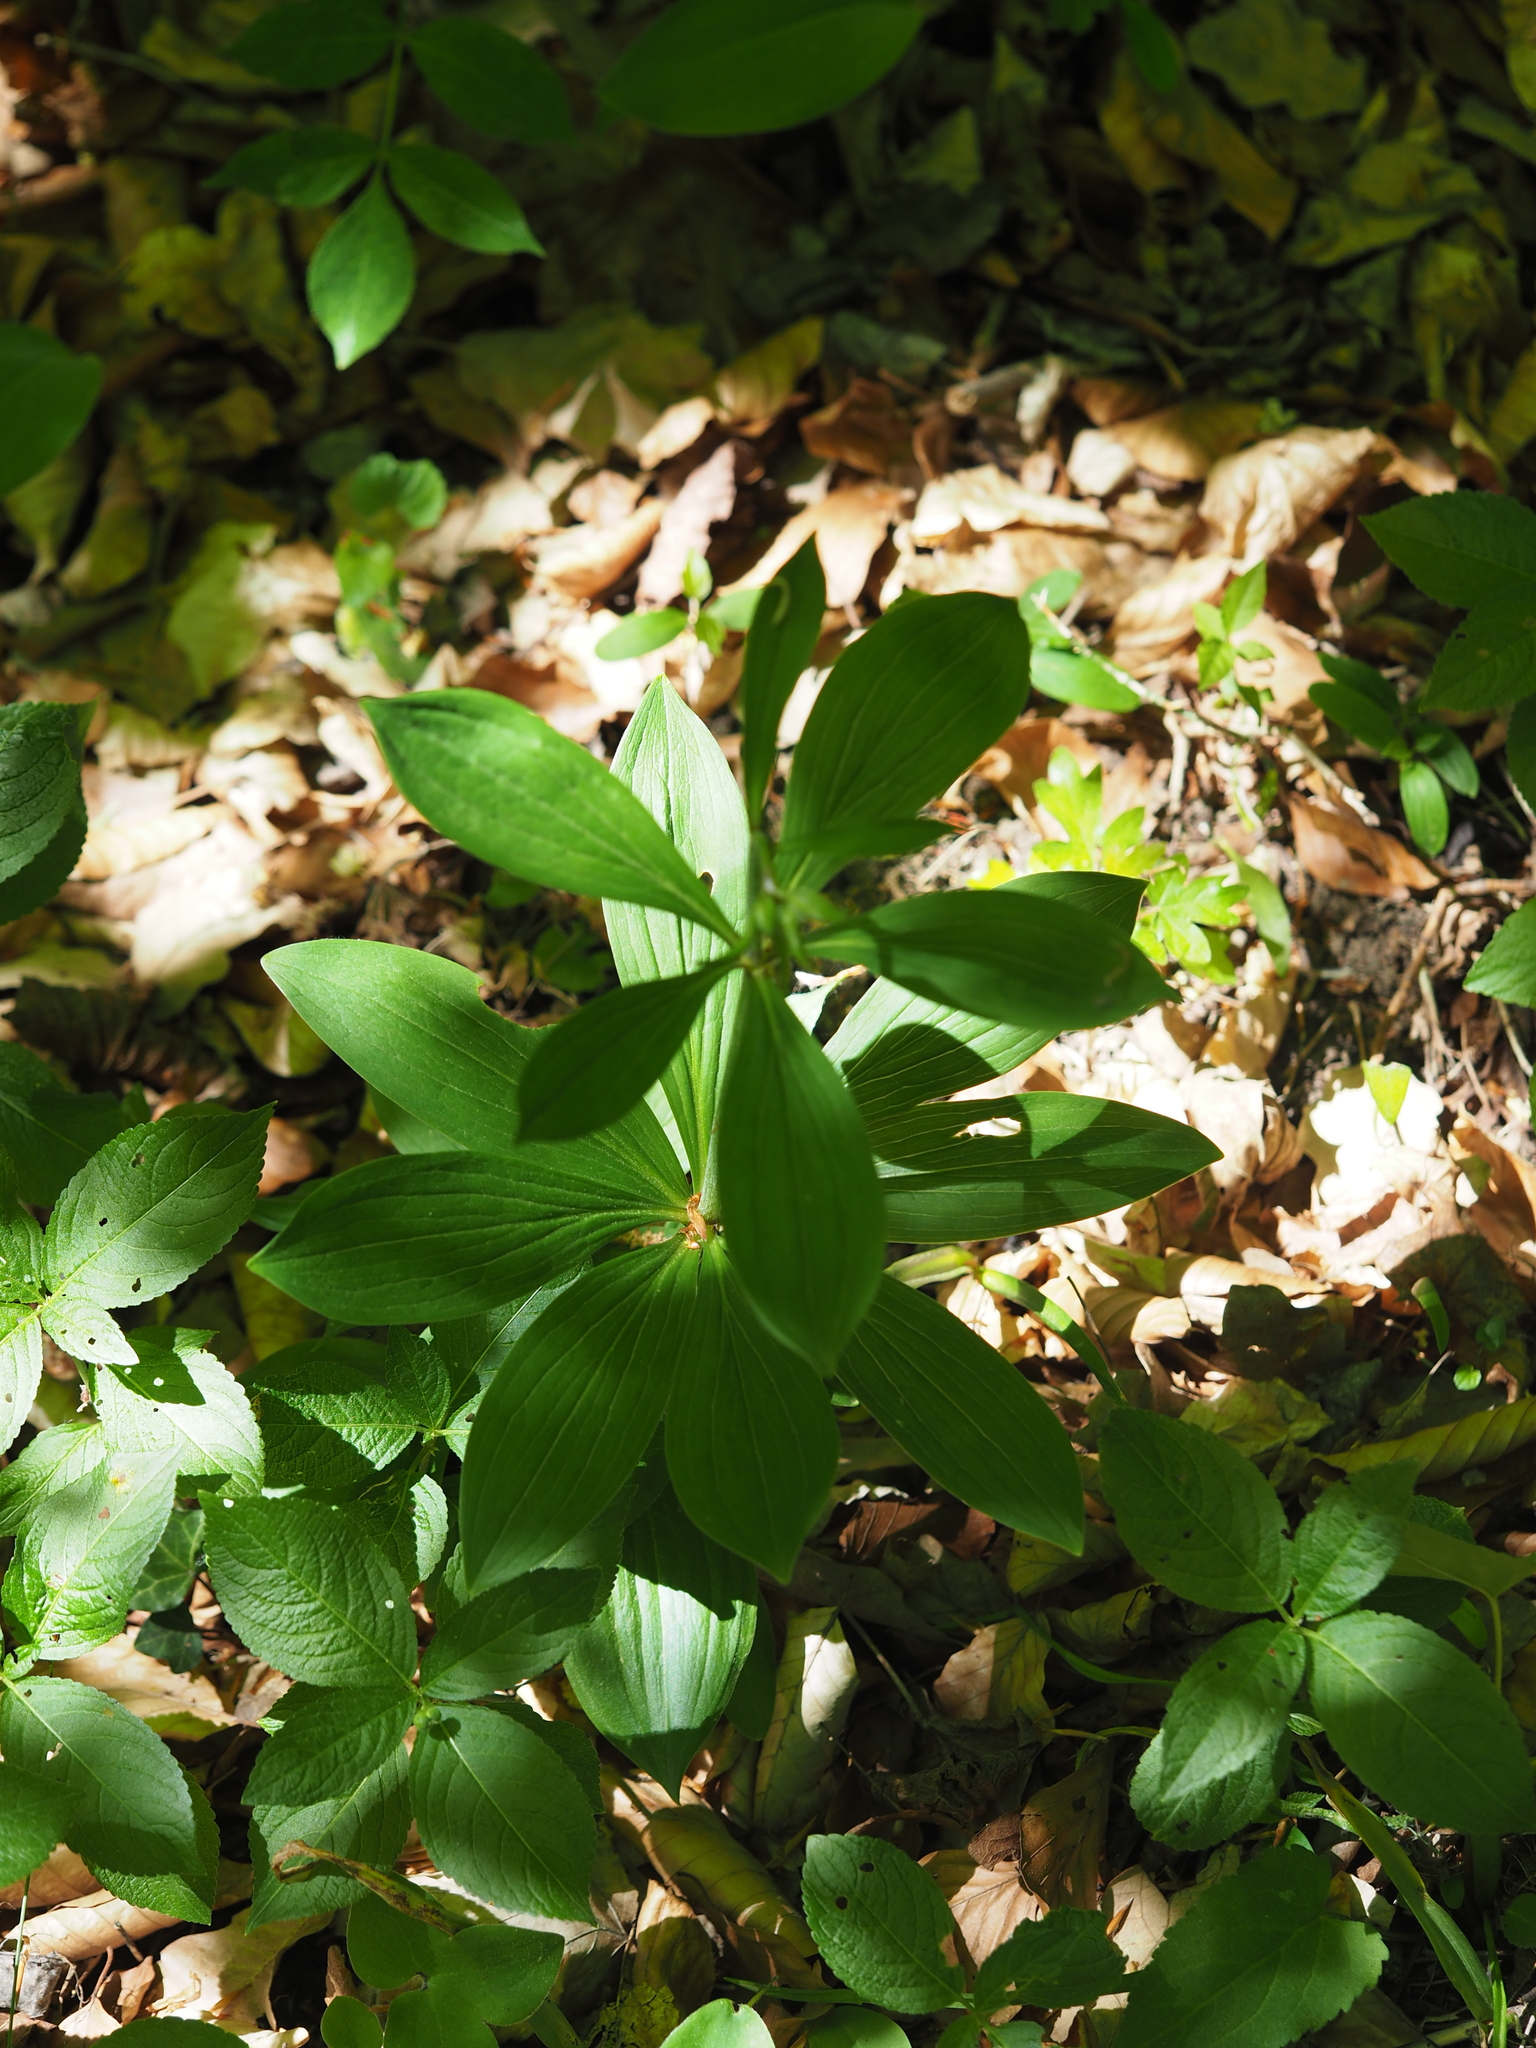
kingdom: Plantae
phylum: Tracheophyta
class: Liliopsida
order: Liliales
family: Liliaceae
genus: Lilium
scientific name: Lilium martagon
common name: Martagon lily
